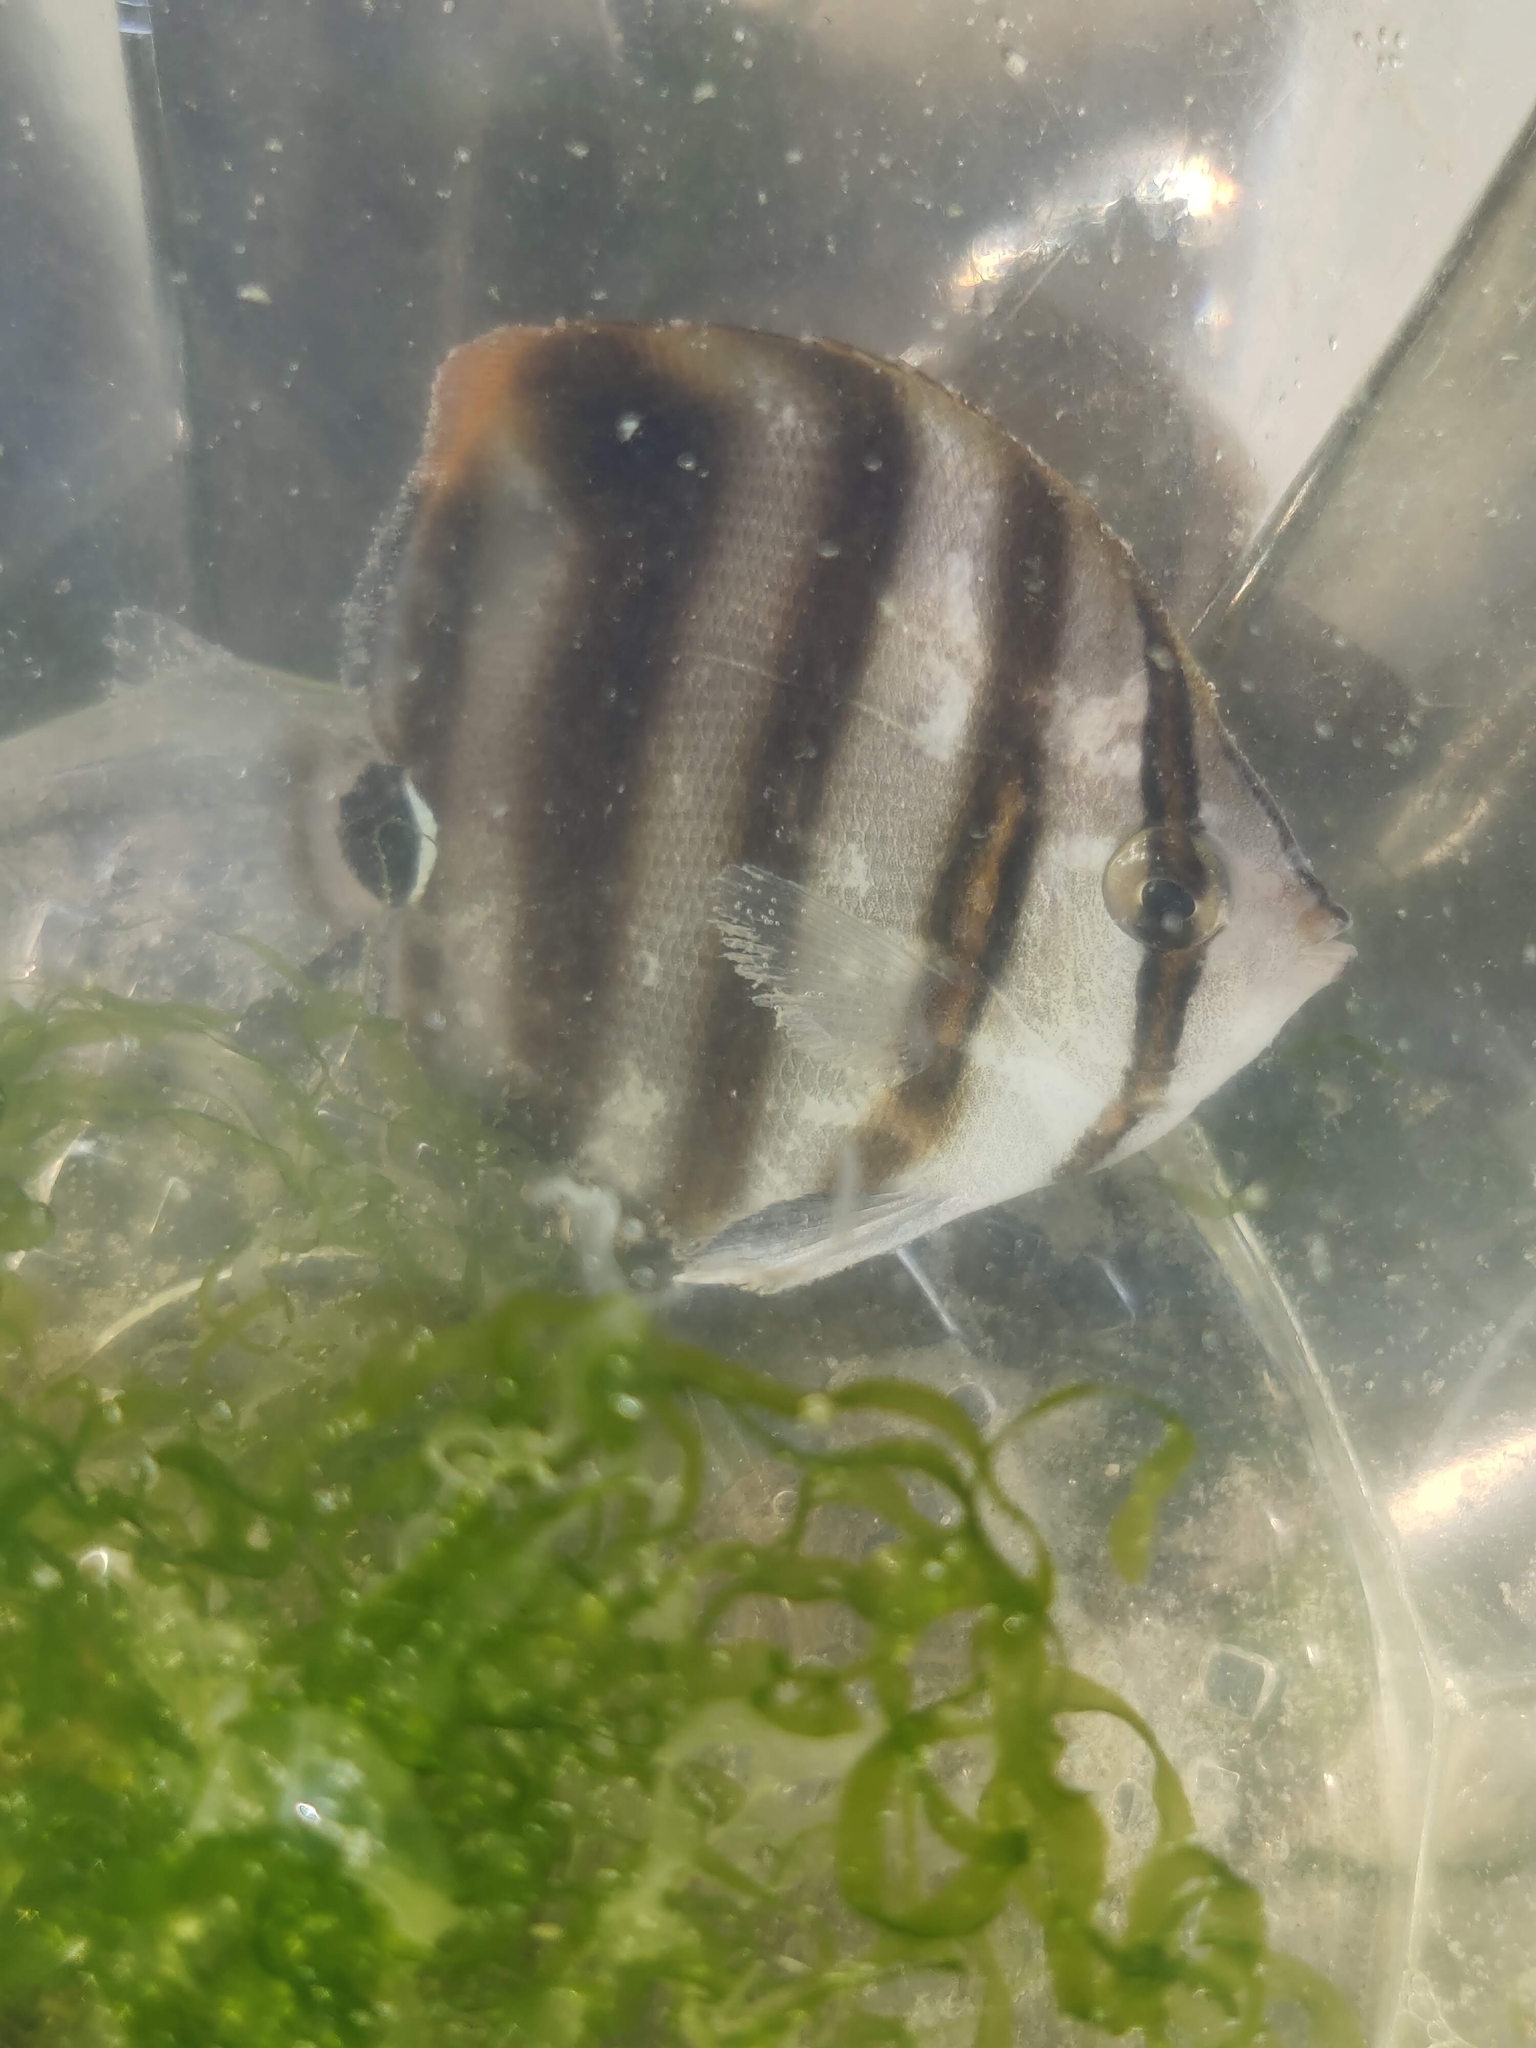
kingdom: Animalia
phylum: Chordata
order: Perciformes
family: Chaetodontidae
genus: Parachaetodon
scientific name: Parachaetodon ocellatus
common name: Ocellate coralfish
